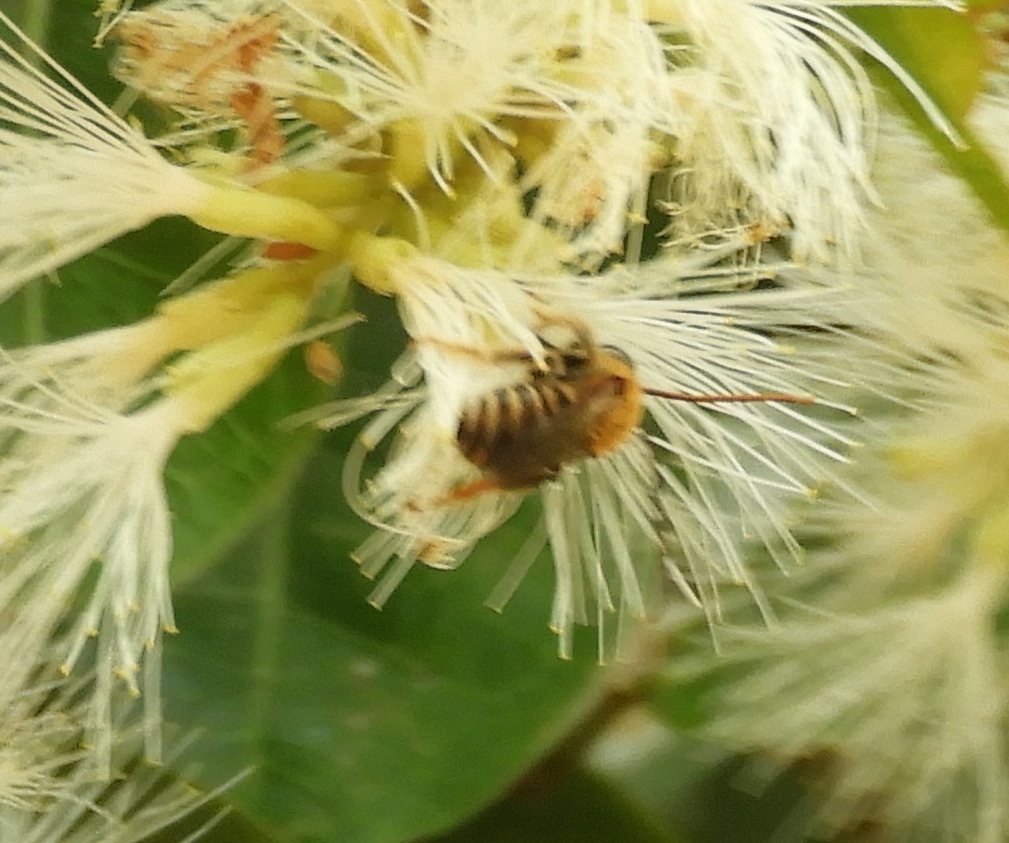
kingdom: Animalia
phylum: Arthropoda
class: Insecta
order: Hymenoptera
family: Apidae
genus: Apidae
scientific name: Apidae
